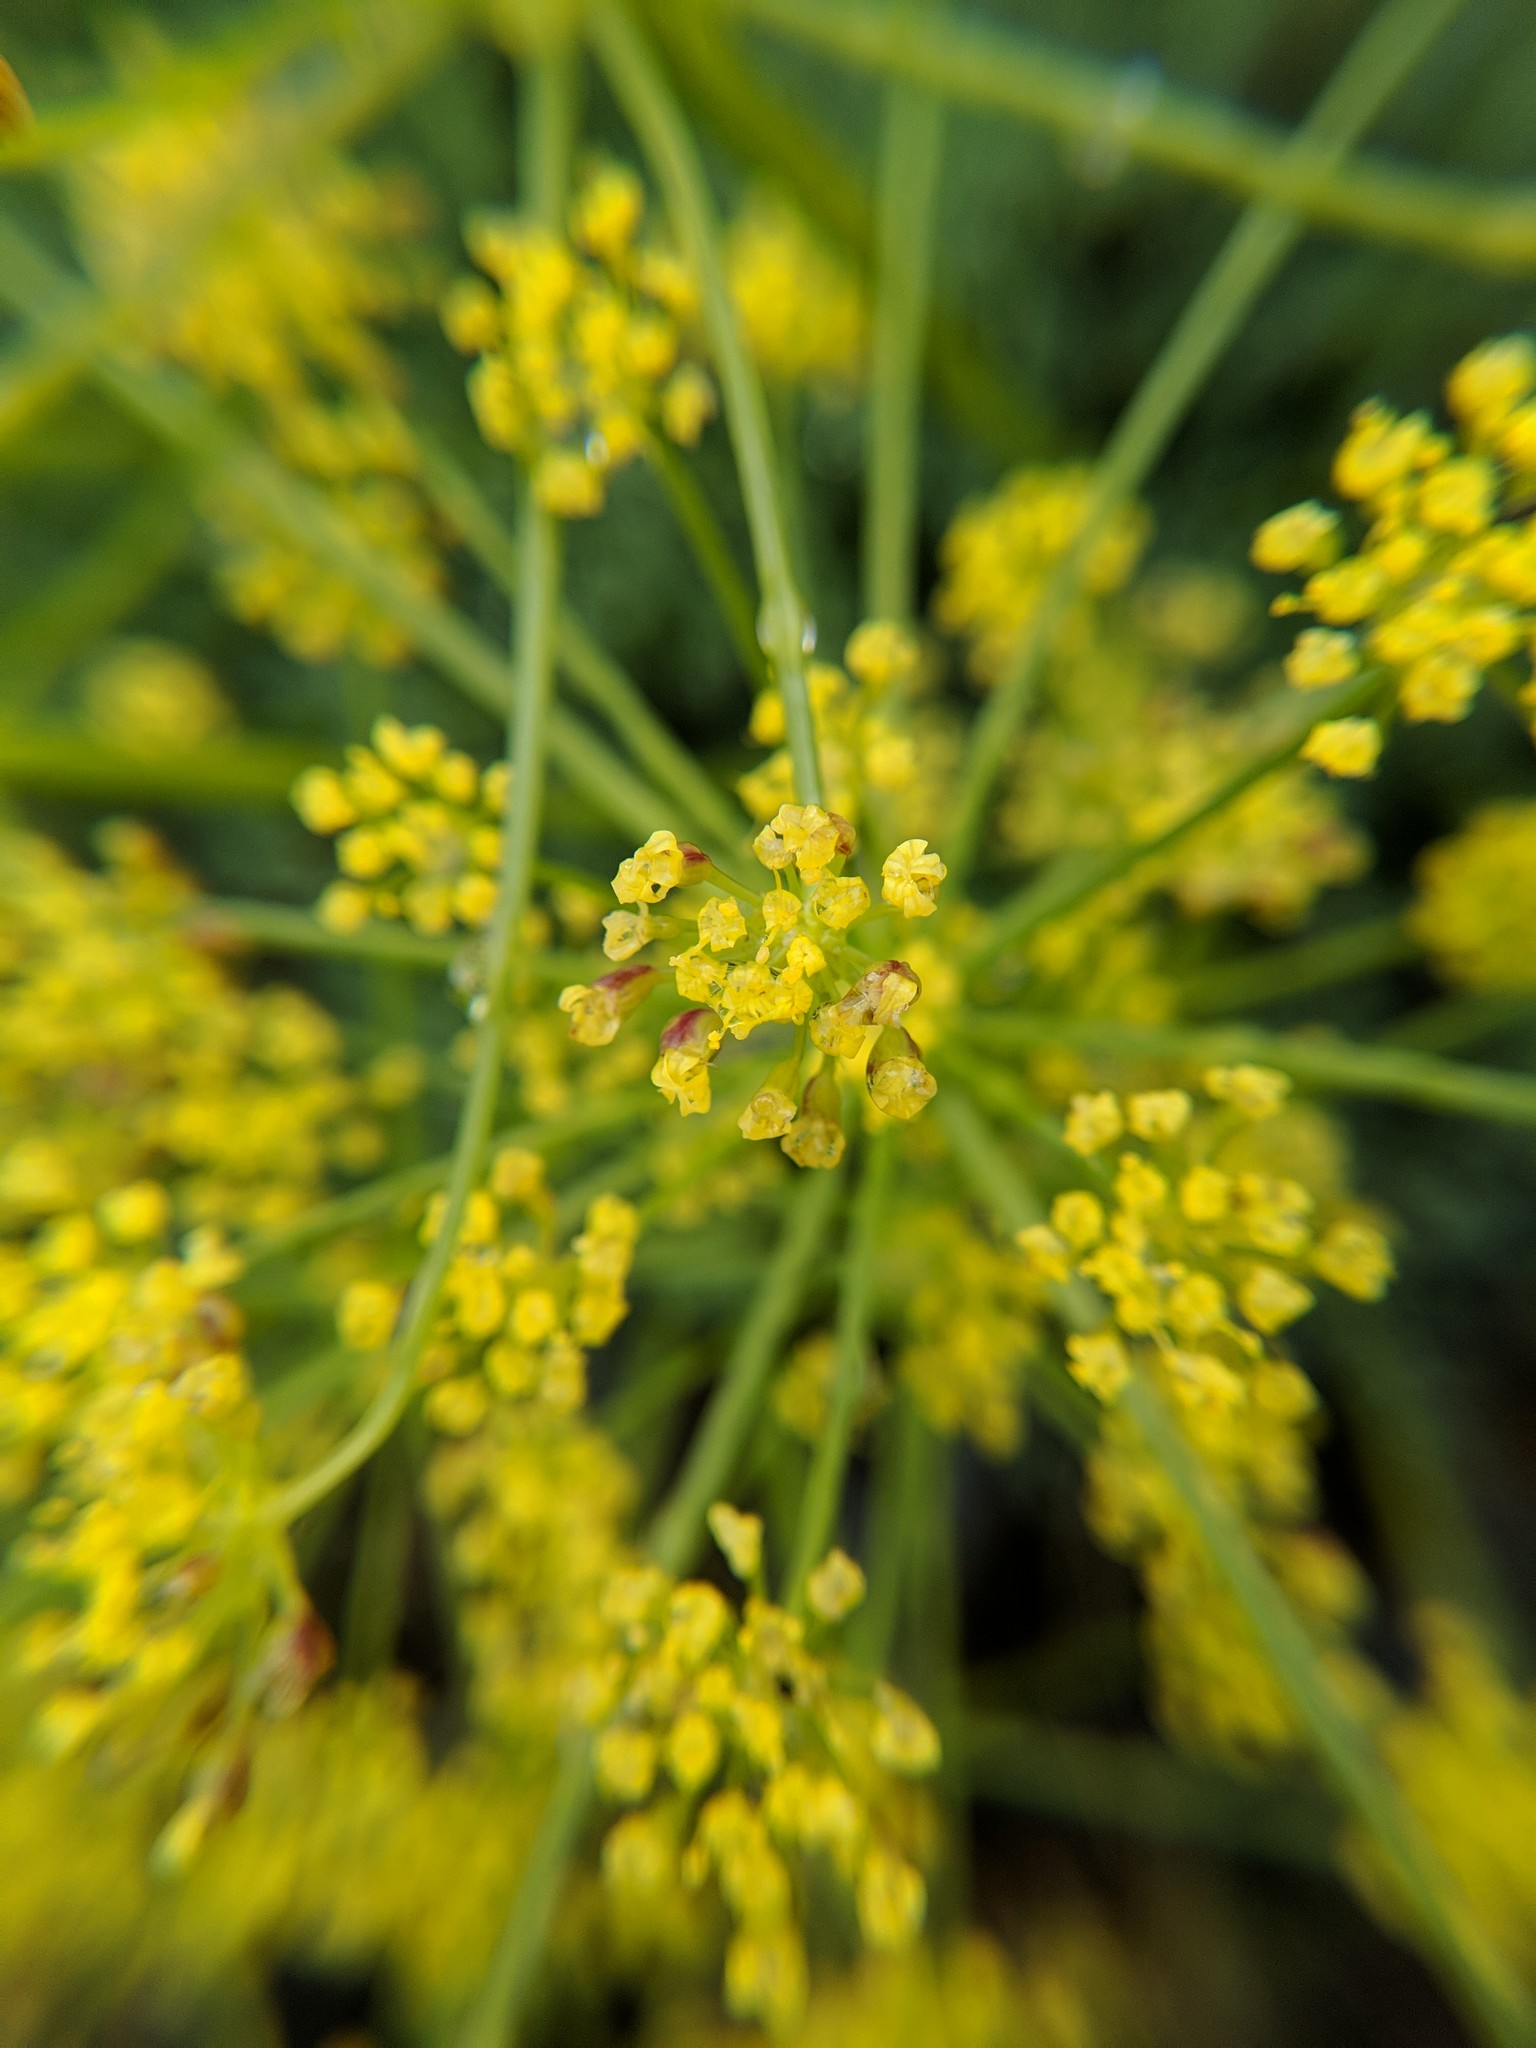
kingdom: Plantae
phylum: Tracheophyta
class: Magnoliopsida
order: Apiales
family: Apiaceae
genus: Lomatium
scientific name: Lomatium papilioniferum
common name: Butterfly lomatium
